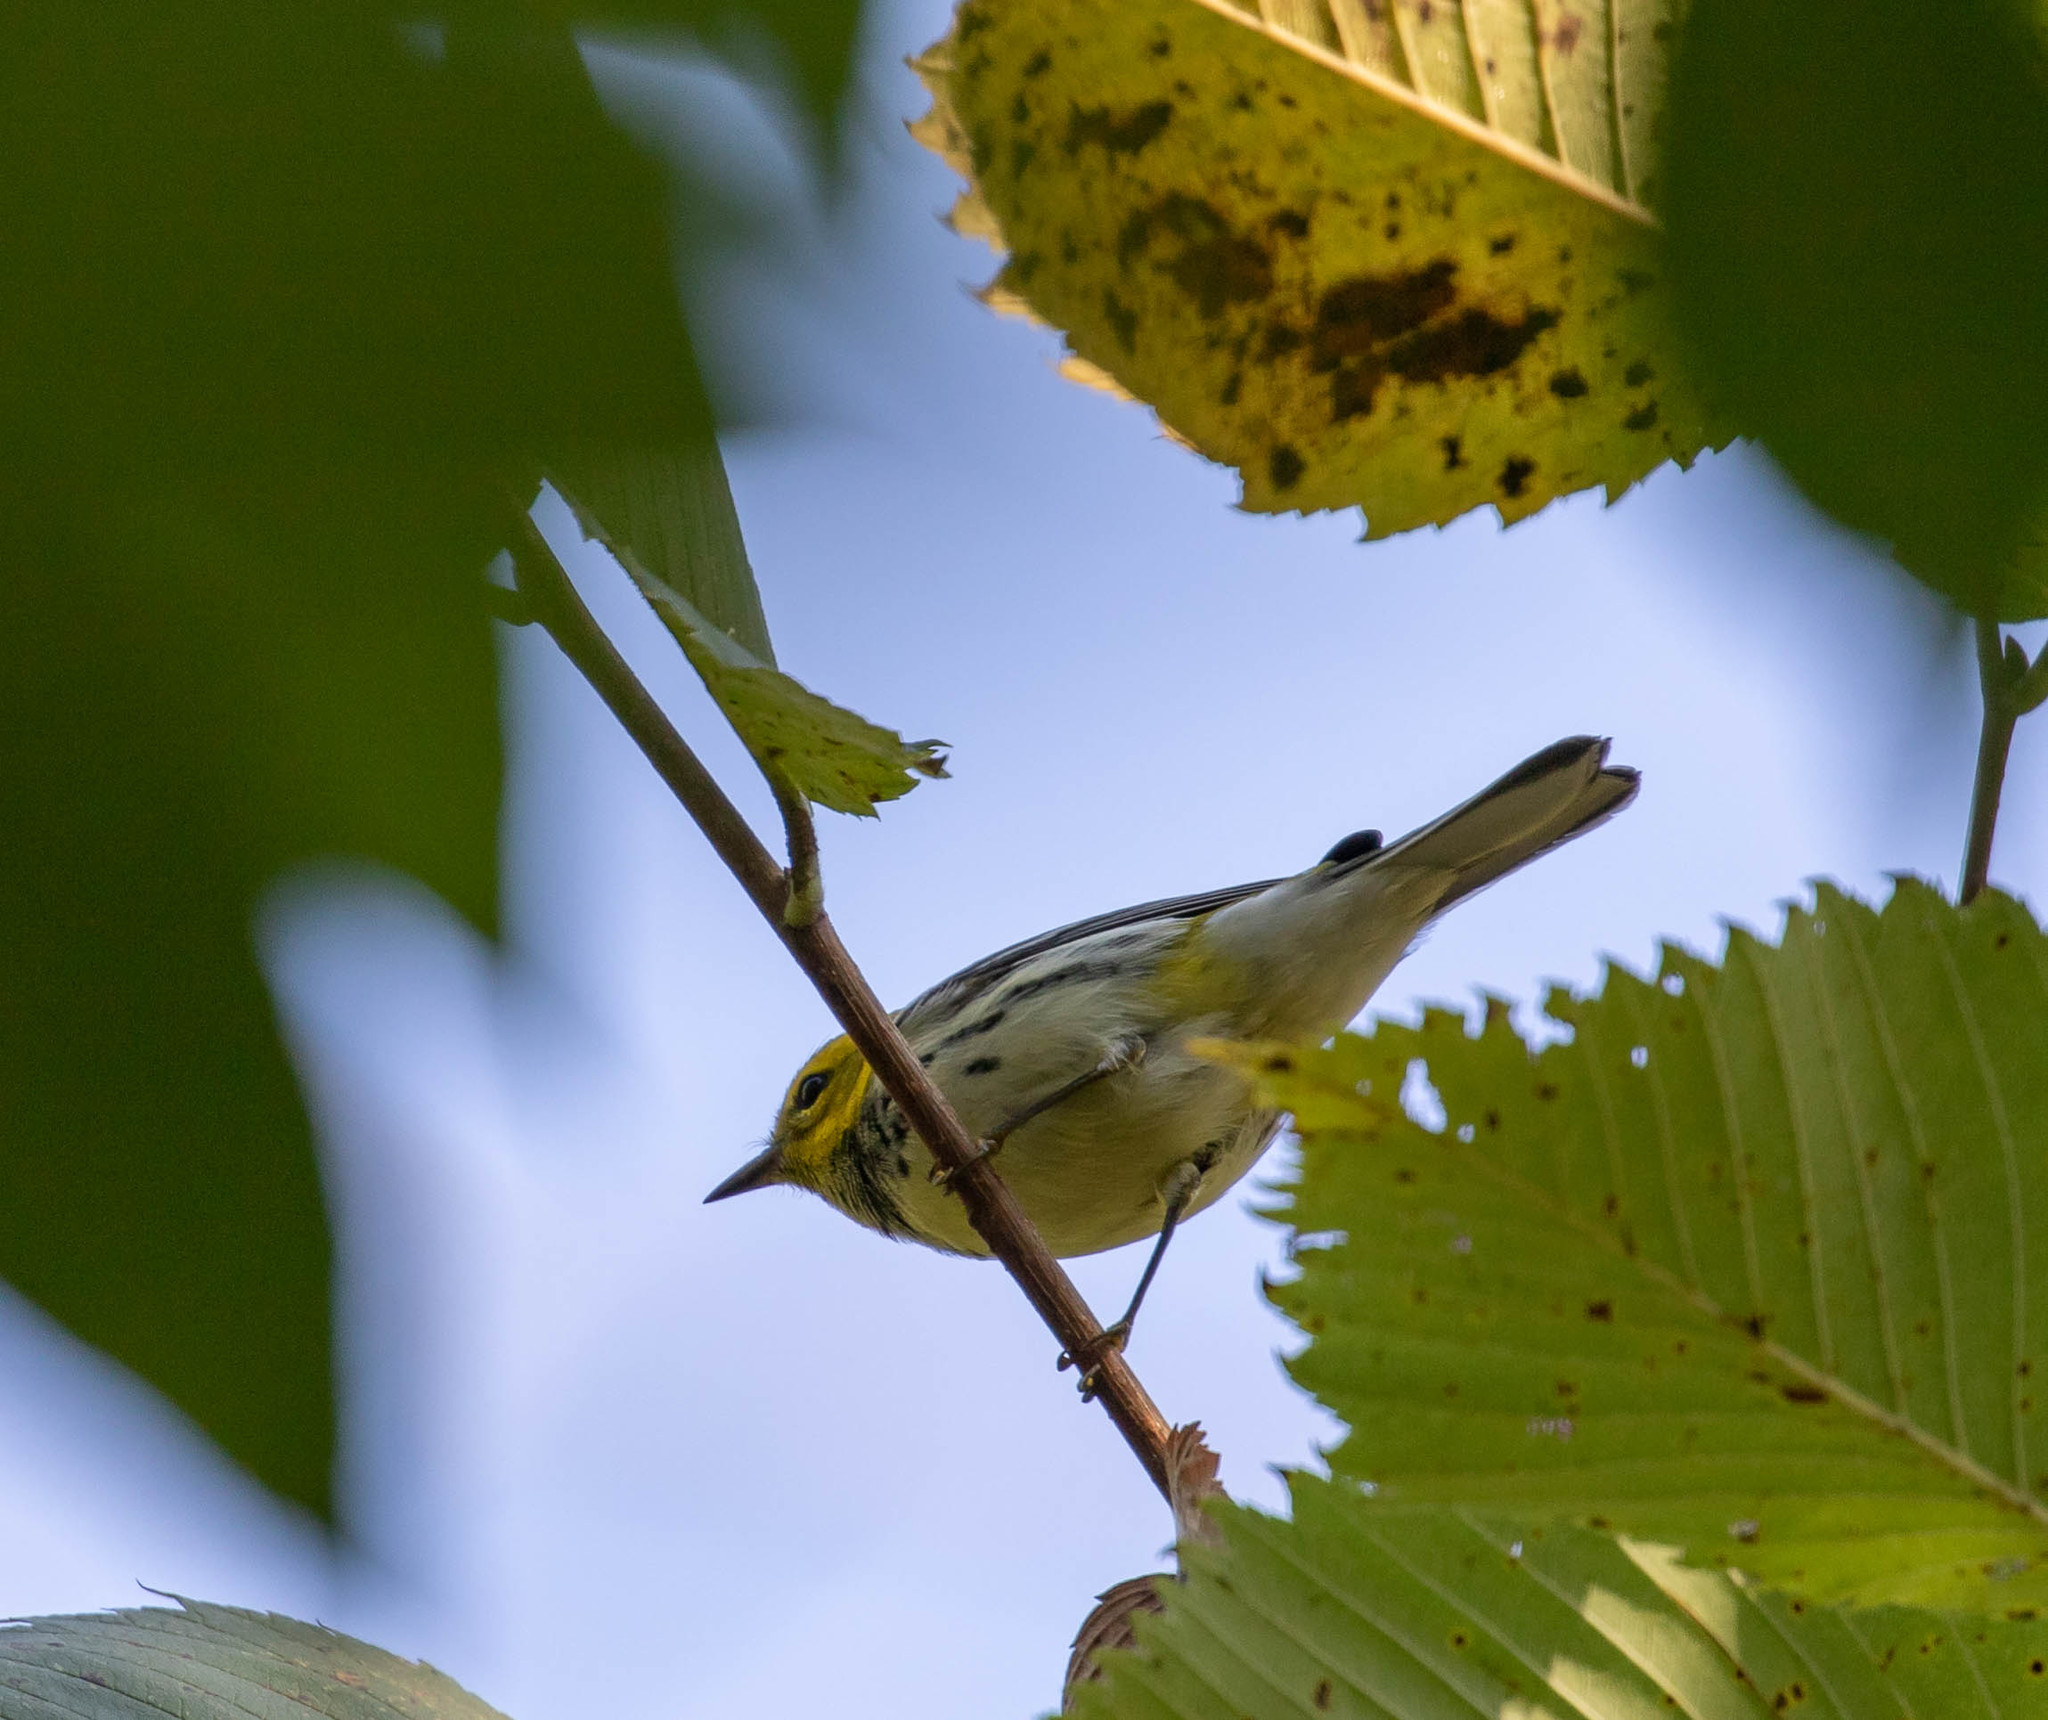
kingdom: Animalia
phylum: Chordata
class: Aves
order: Passeriformes
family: Parulidae
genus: Setophaga
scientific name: Setophaga virens
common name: Black-throated green warbler
